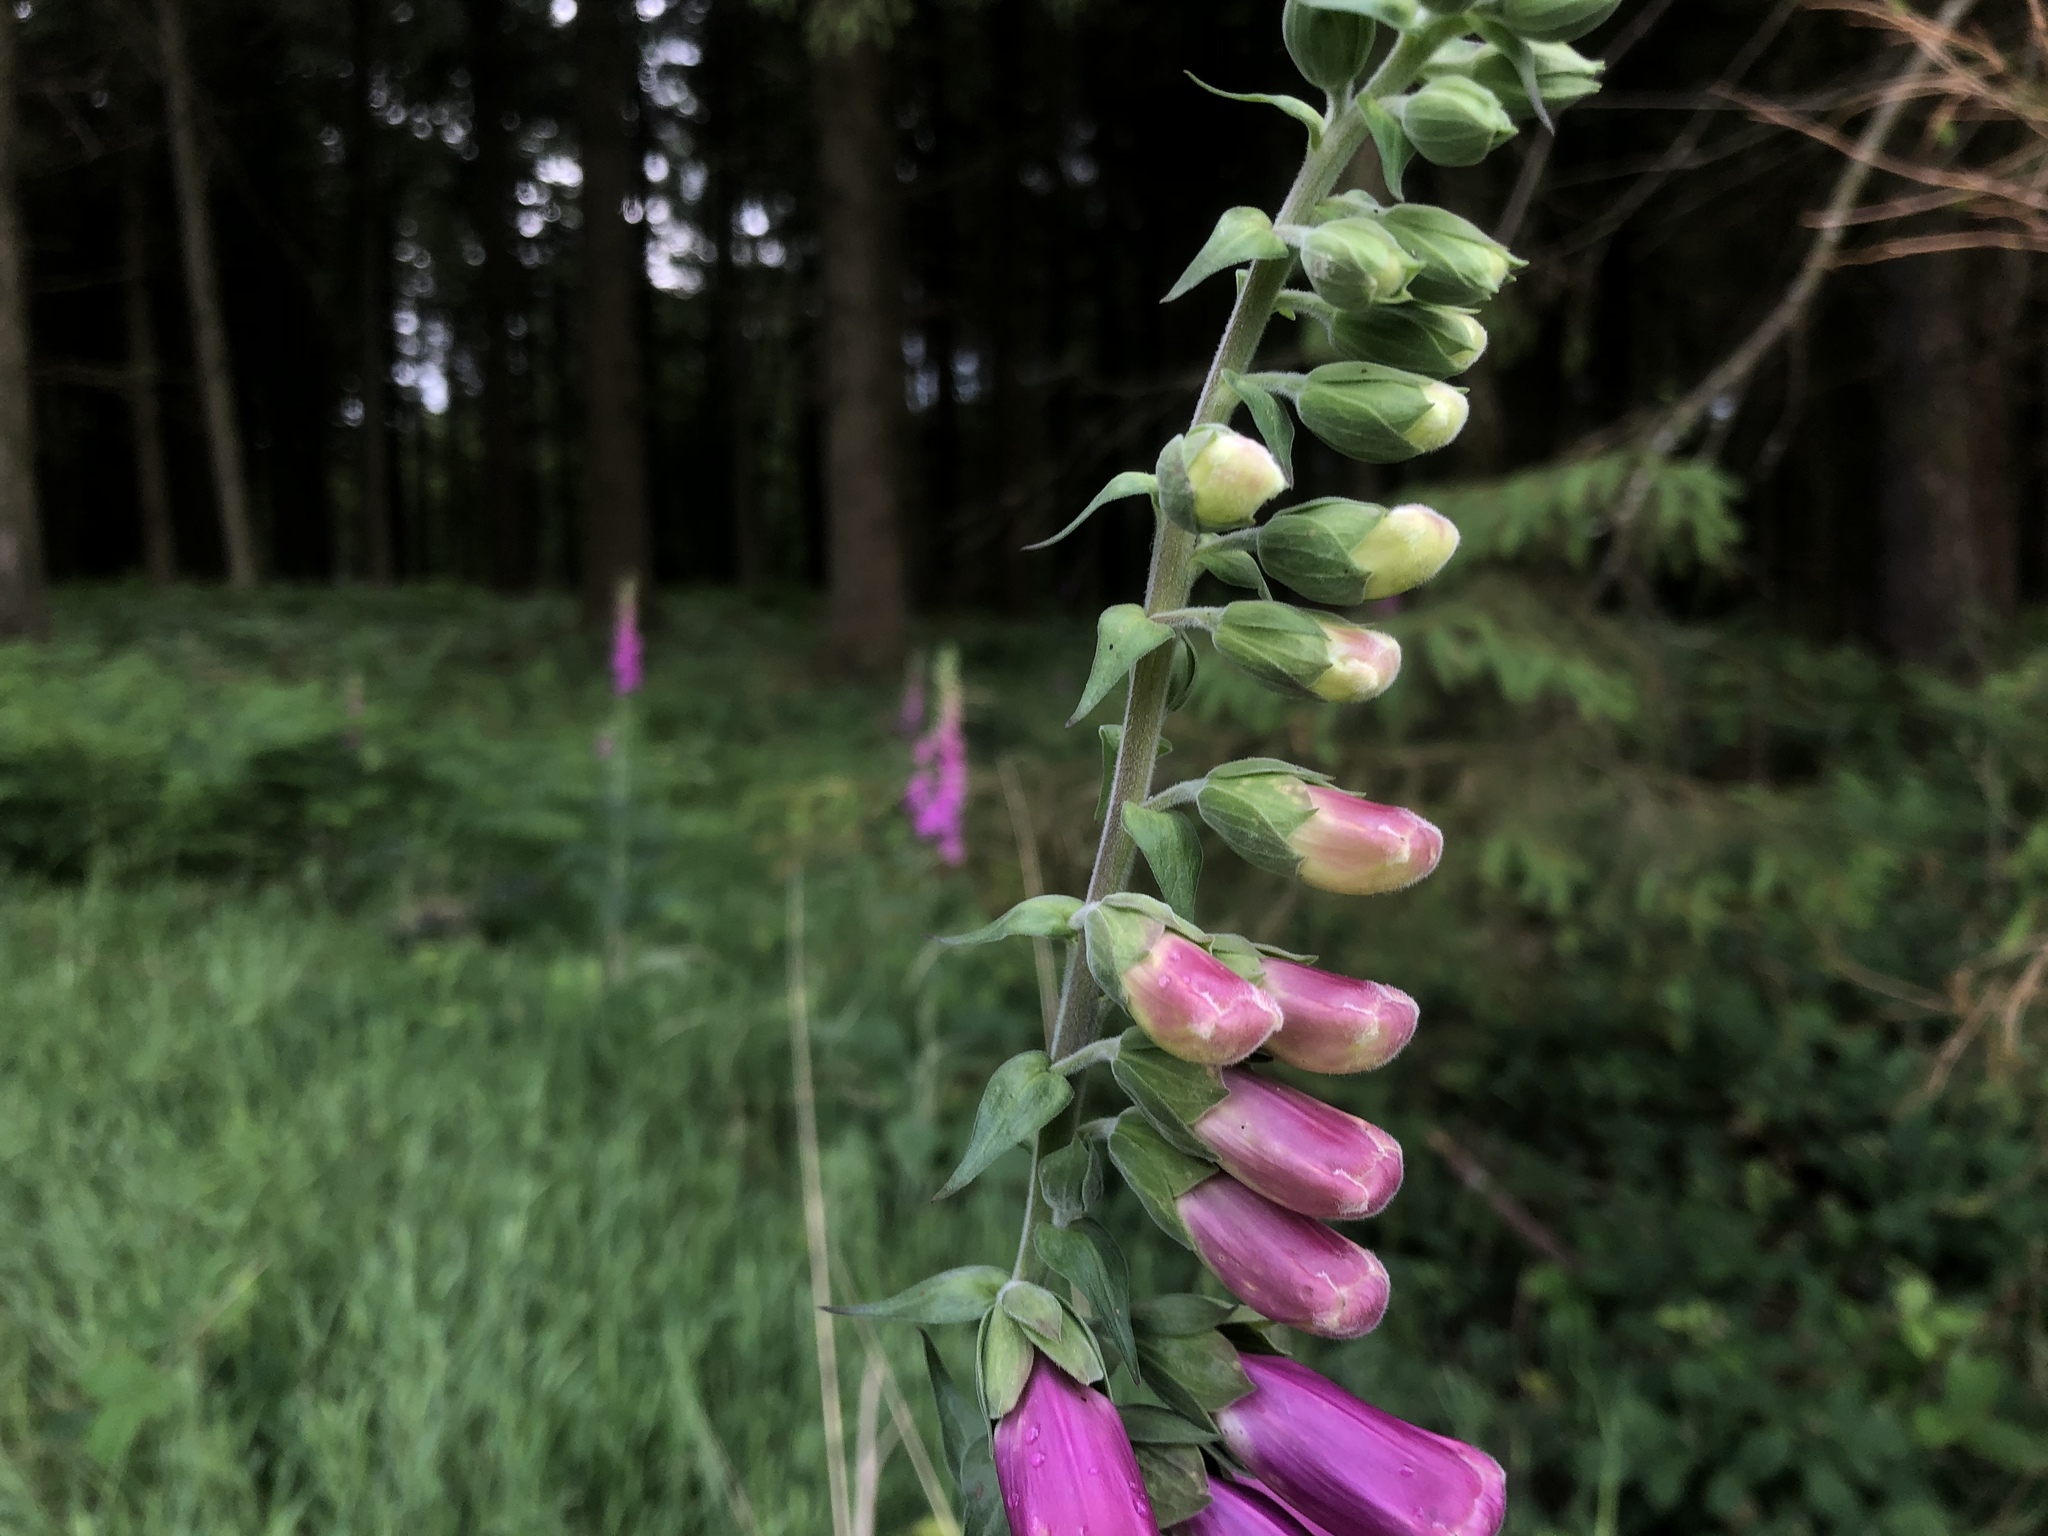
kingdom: Plantae
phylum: Tracheophyta
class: Magnoliopsida
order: Lamiales
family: Plantaginaceae
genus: Digitalis
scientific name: Digitalis purpurea
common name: Foxglove
